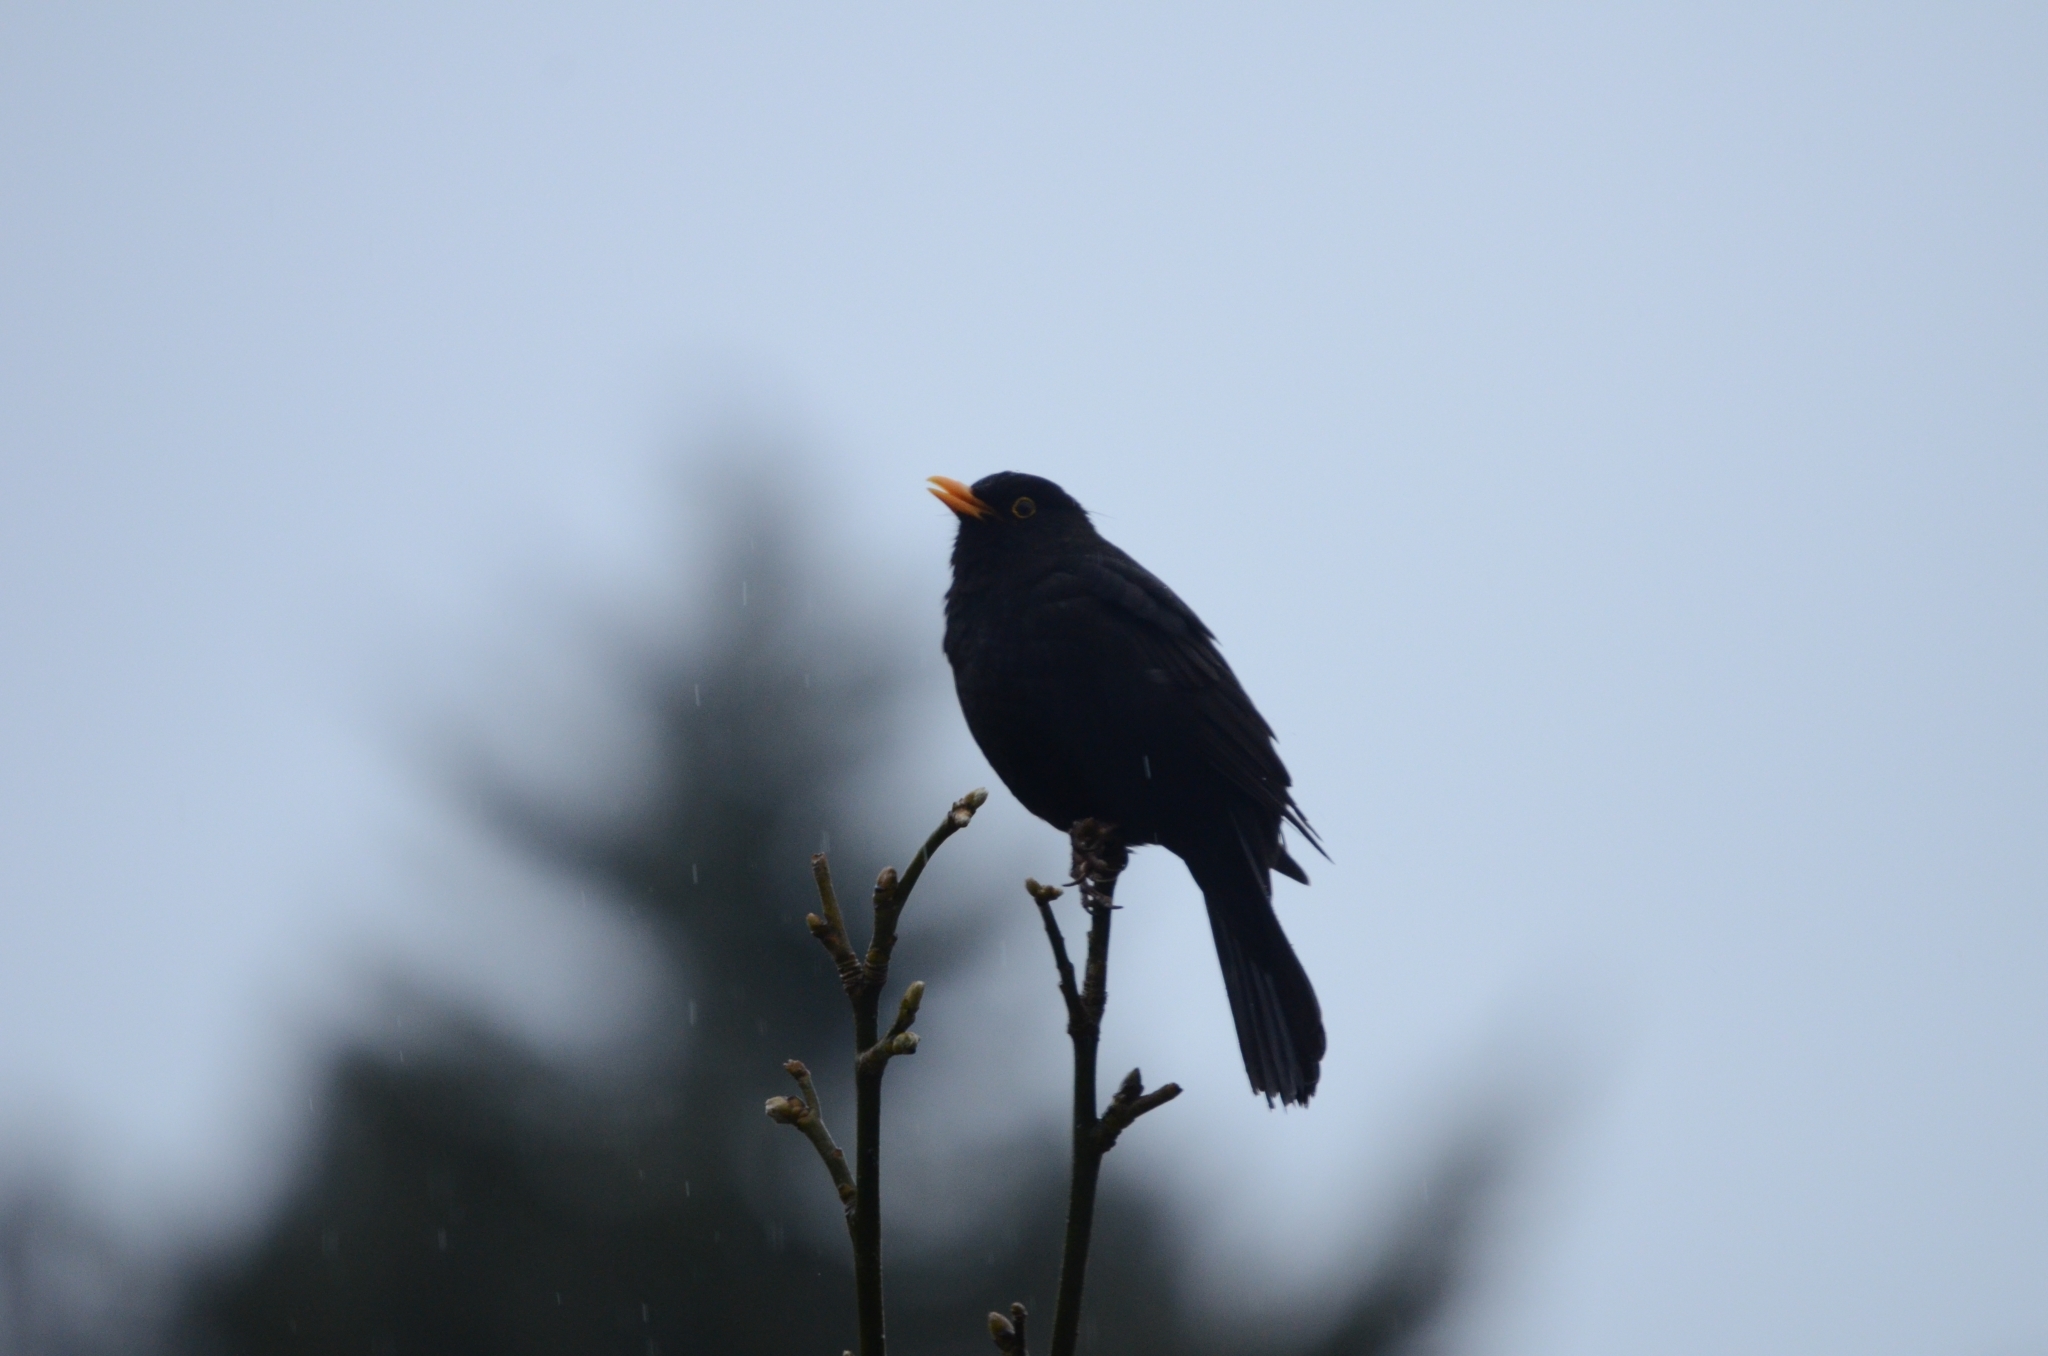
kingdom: Animalia
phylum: Chordata
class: Aves
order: Passeriformes
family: Turdidae
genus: Turdus
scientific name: Turdus merula
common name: Common blackbird
